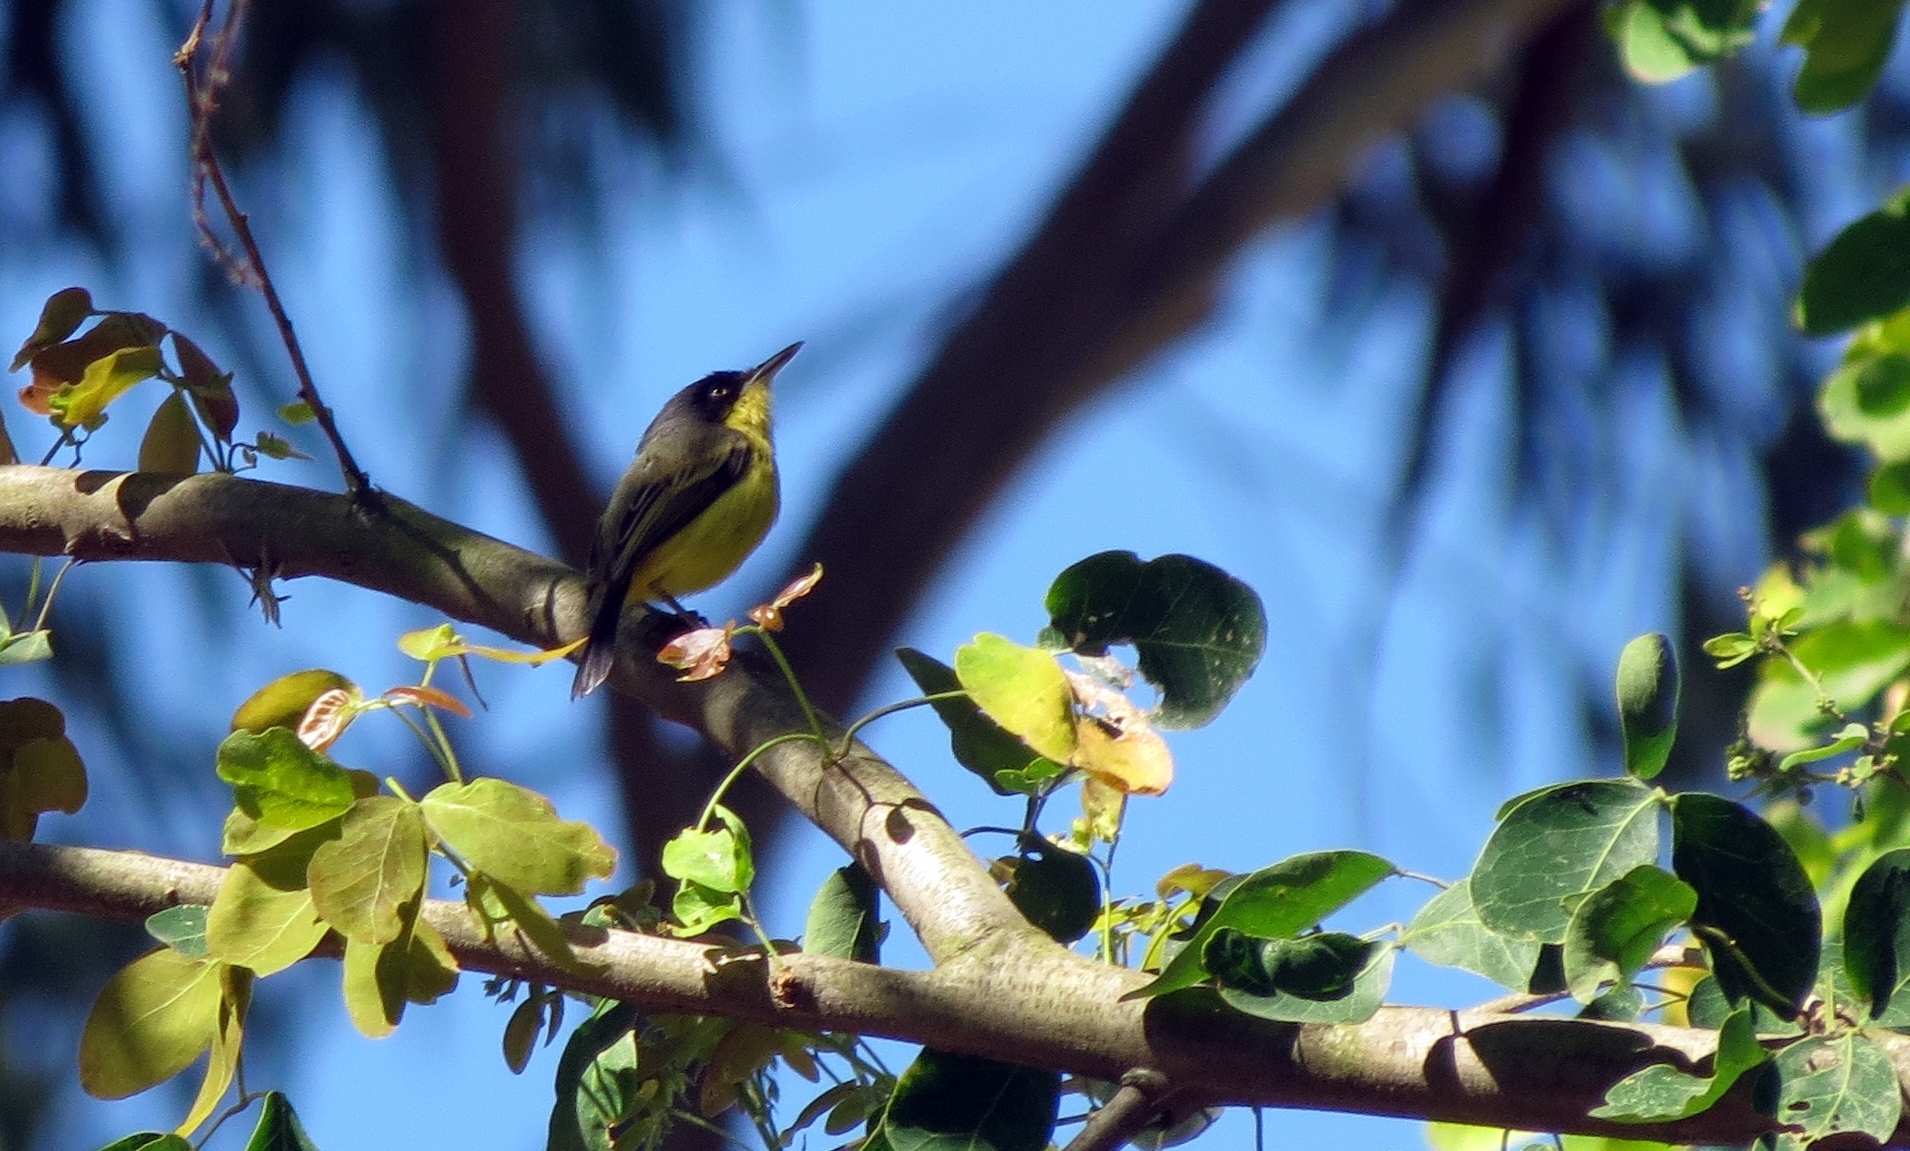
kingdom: Animalia
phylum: Chordata
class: Aves
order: Passeriformes
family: Tyrannidae
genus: Todirostrum
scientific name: Todirostrum cinereum
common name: Common tody-flycatcher
